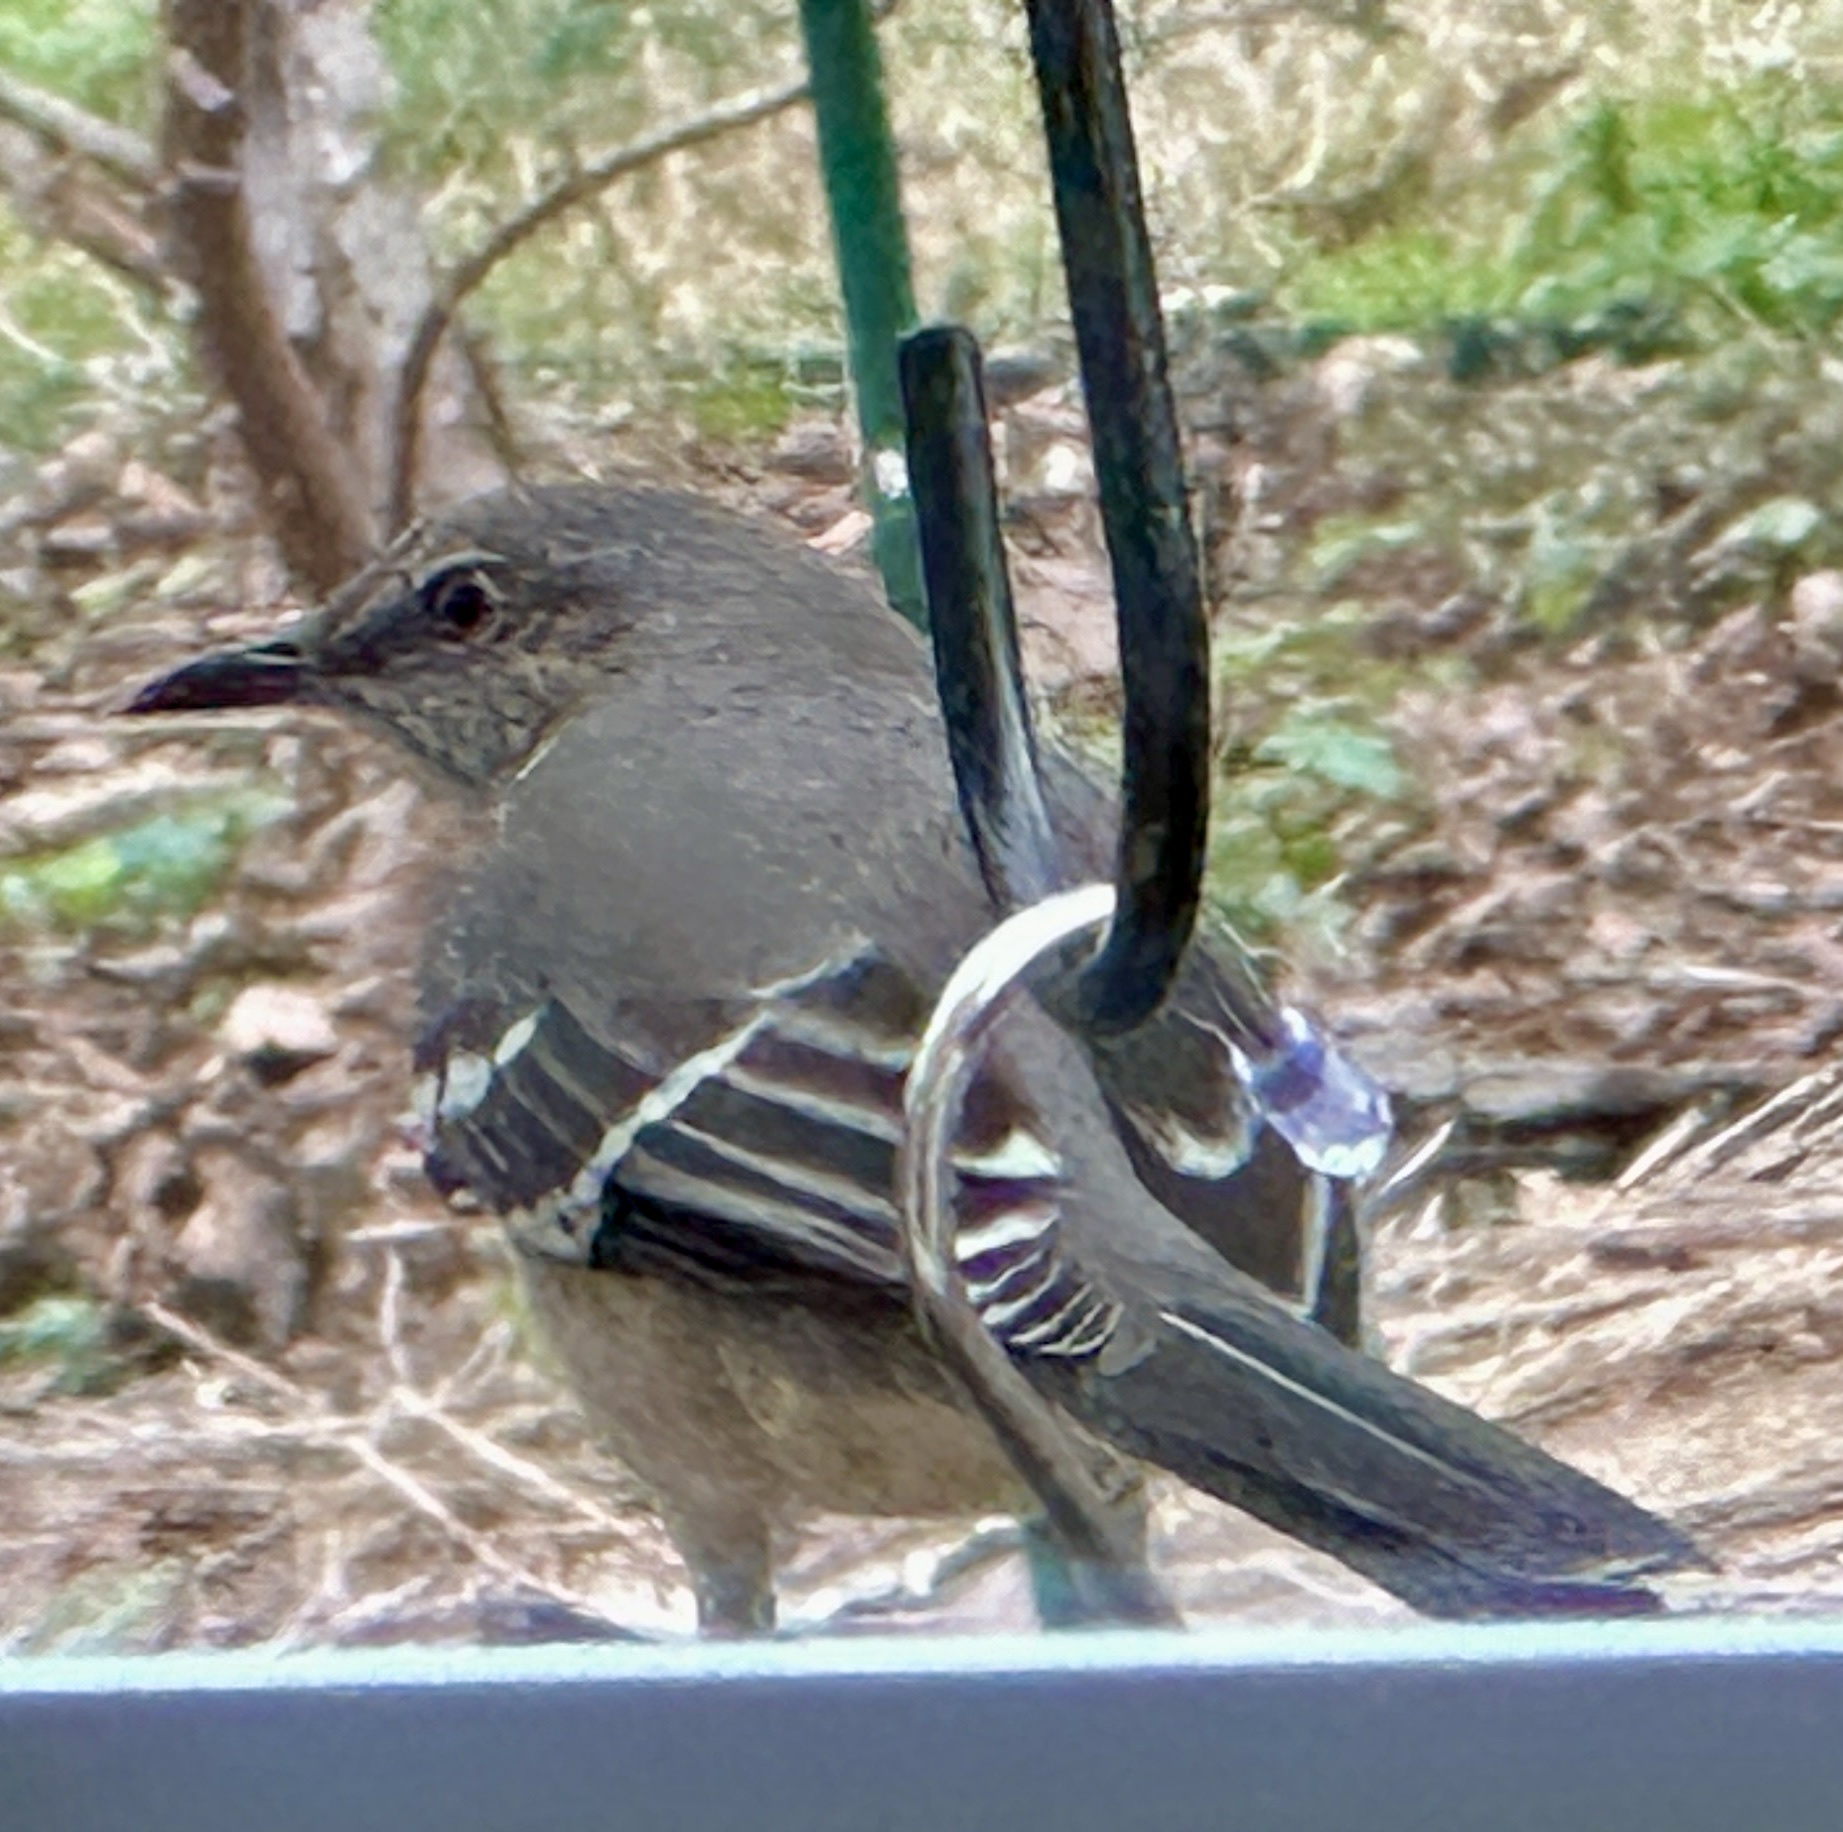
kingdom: Animalia
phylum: Chordata
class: Aves
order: Passeriformes
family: Mimidae
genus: Mimus
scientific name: Mimus polyglottos
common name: Northern mockingbird
